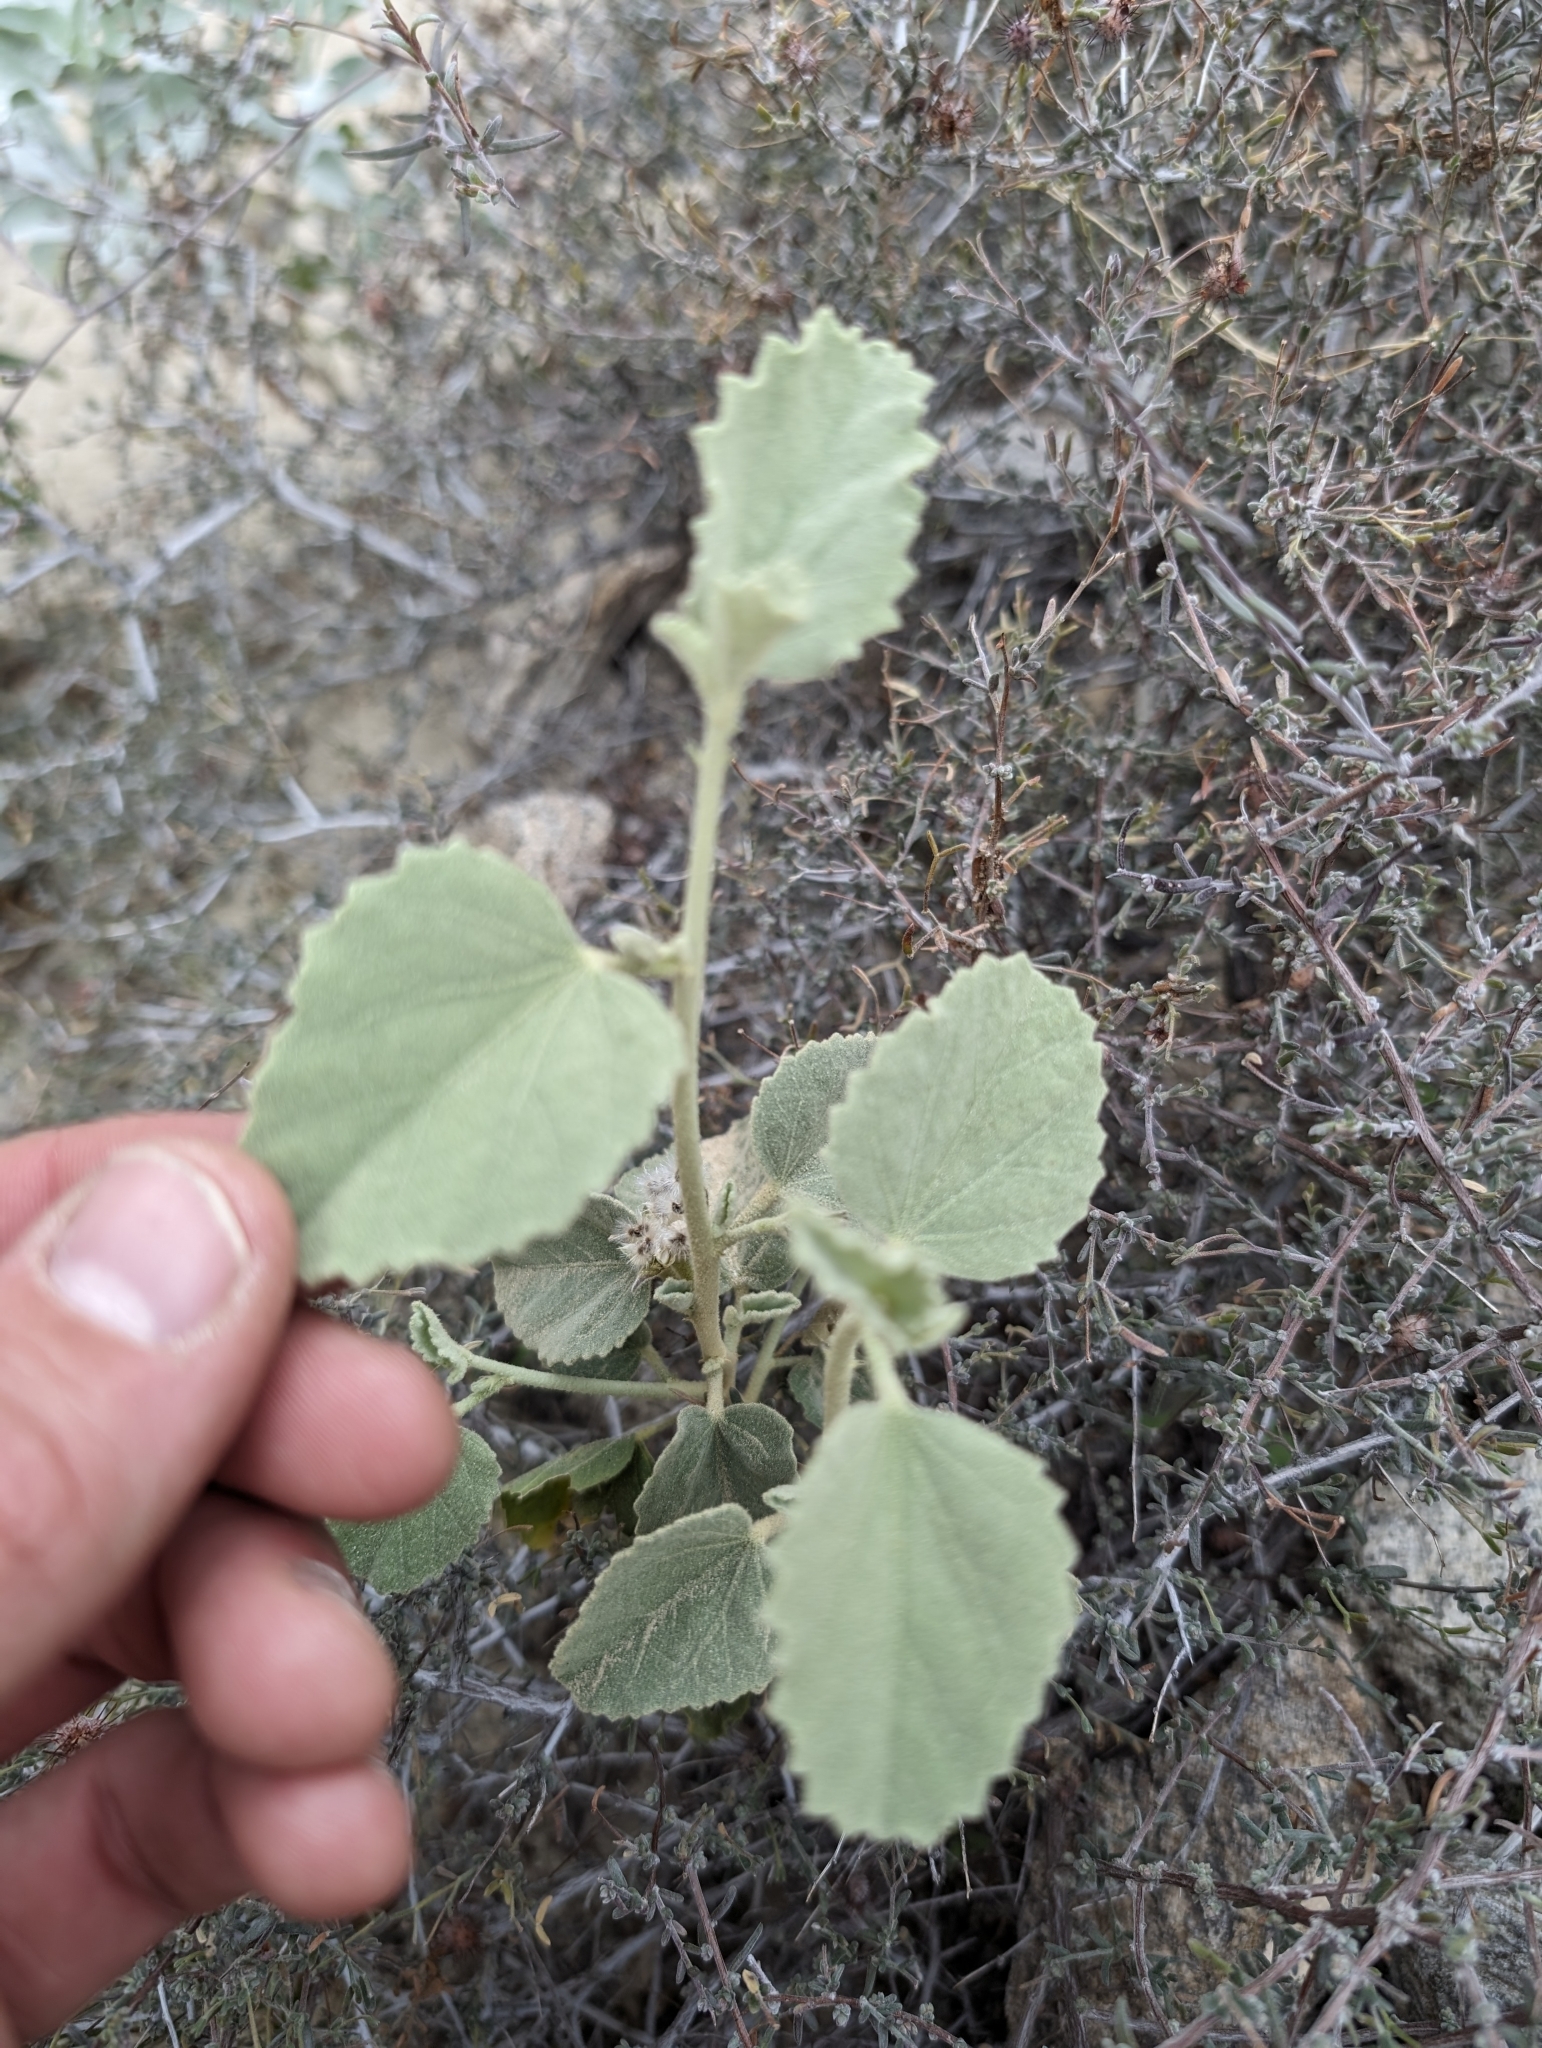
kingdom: Plantae
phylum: Tracheophyta
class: Magnoliopsida
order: Malvales
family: Malvaceae
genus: Hibiscus
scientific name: Hibiscus denudatus
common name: Paleface
